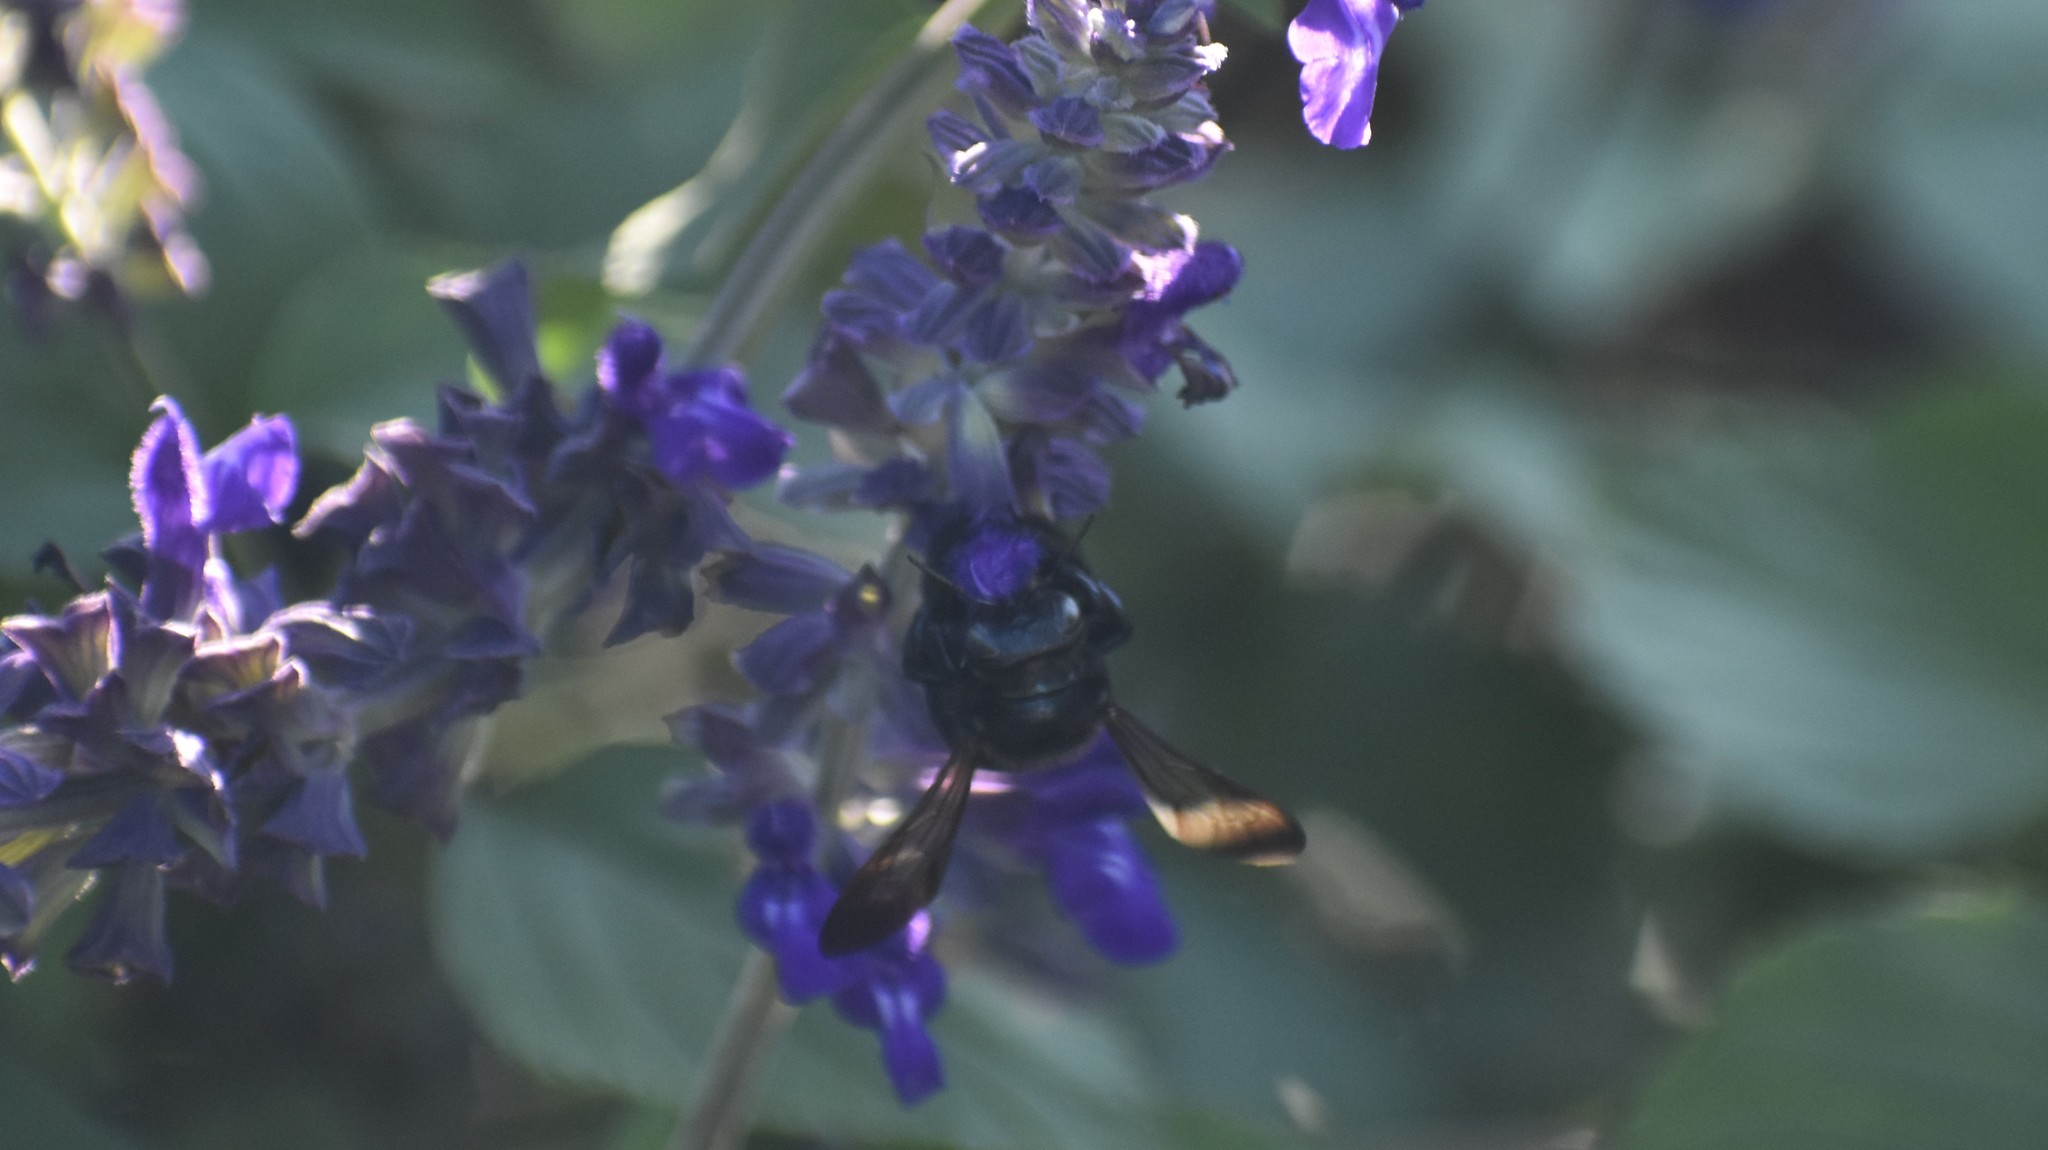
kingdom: Animalia
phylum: Arthropoda
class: Insecta
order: Hymenoptera
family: Apidae
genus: Xylocopa
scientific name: Xylocopa micans
